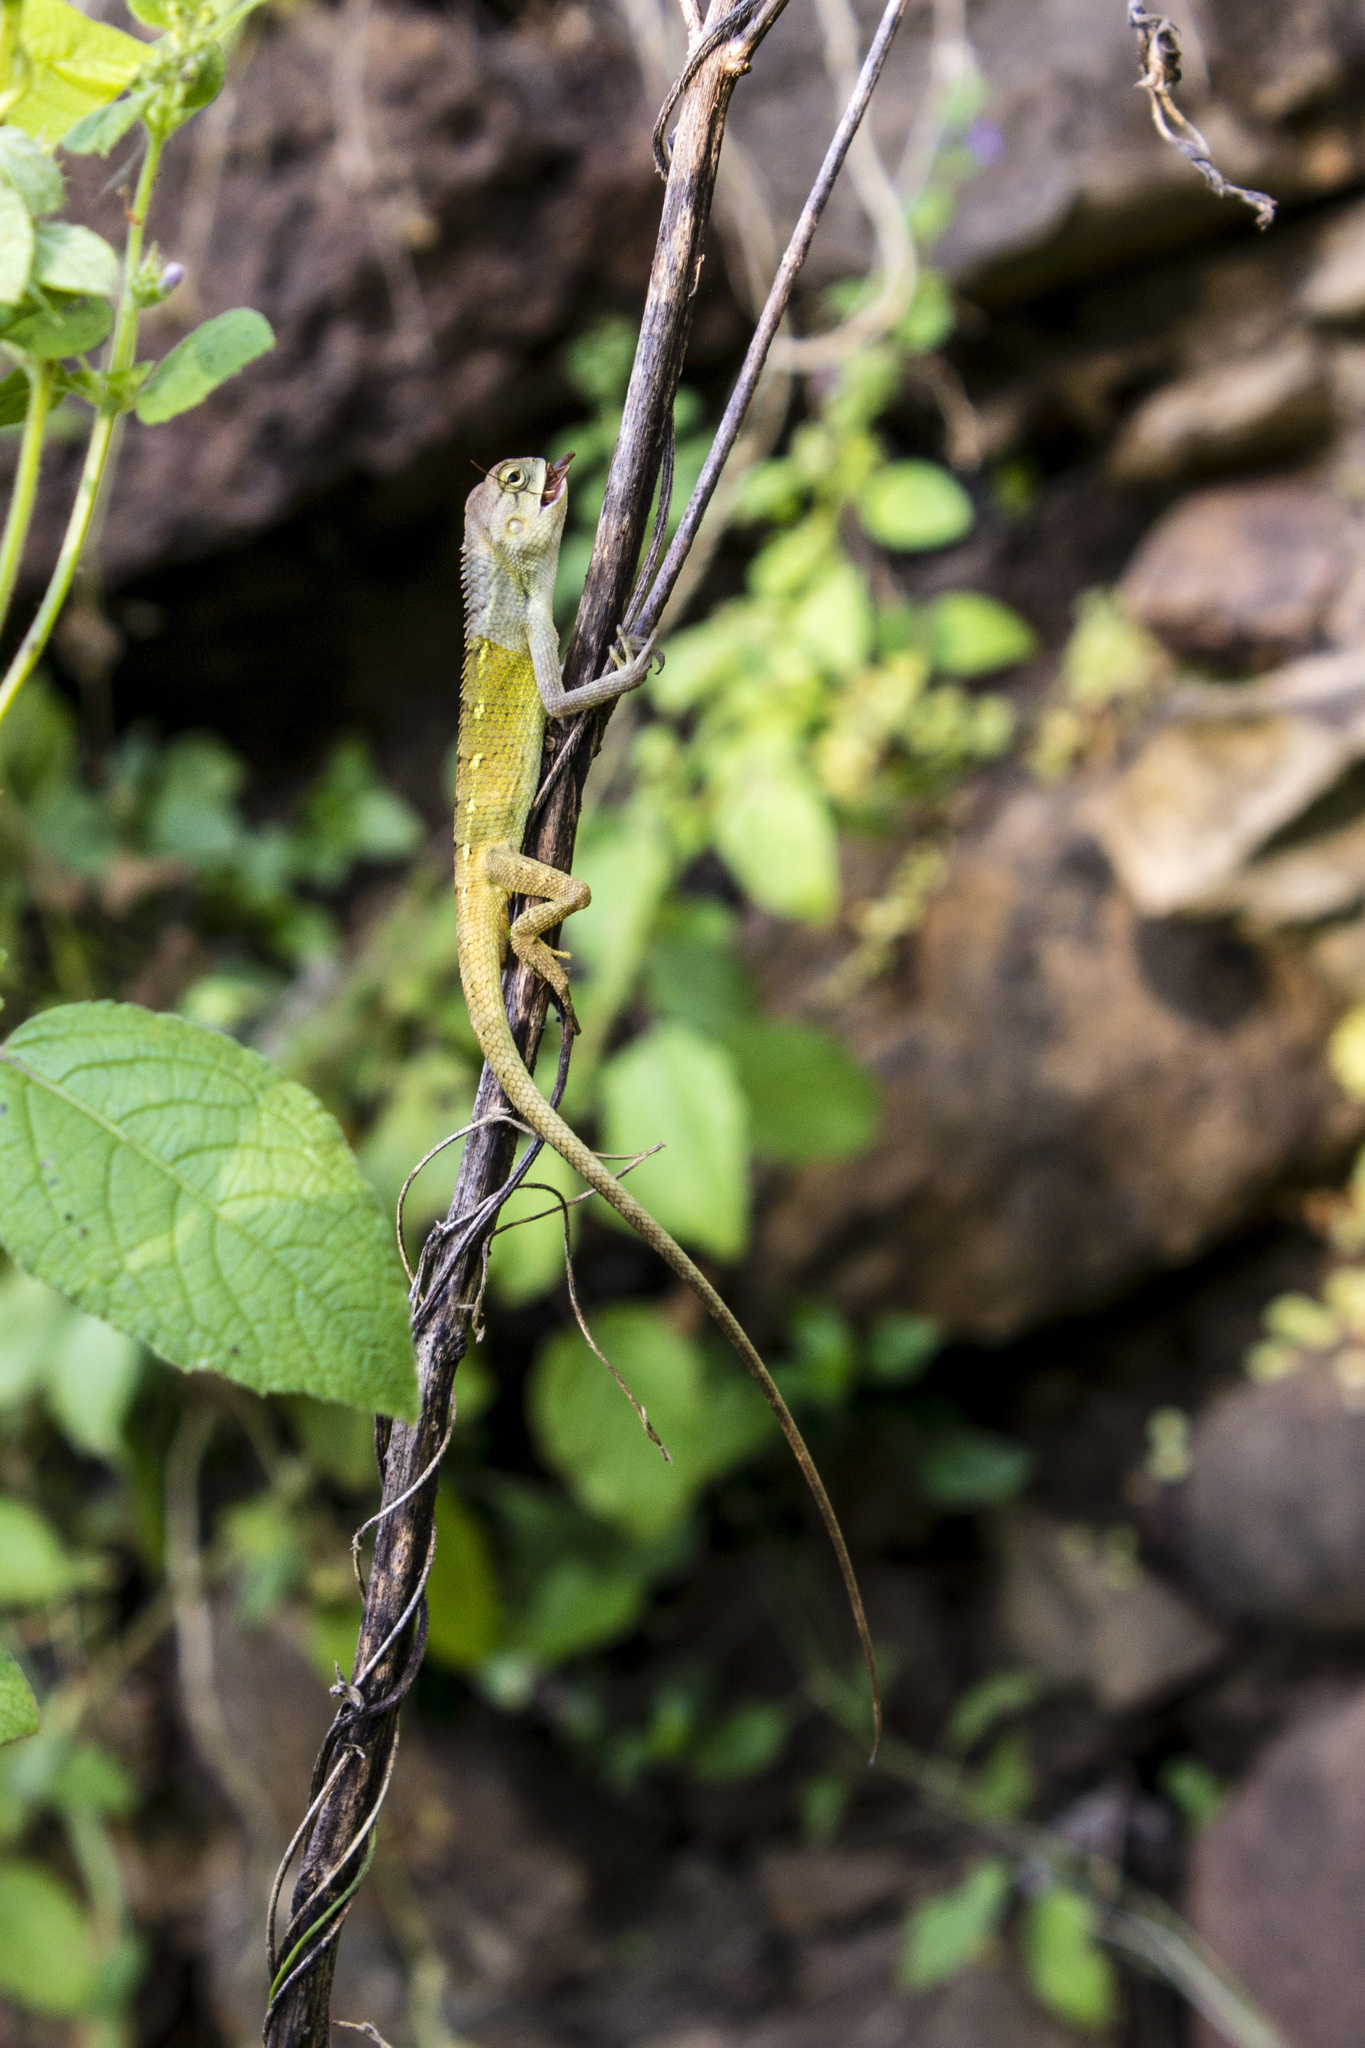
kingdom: Animalia
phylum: Chordata
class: Squamata
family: Agamidae
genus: Calotes
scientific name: Calotes versicolor
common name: Oriental garden lizard
